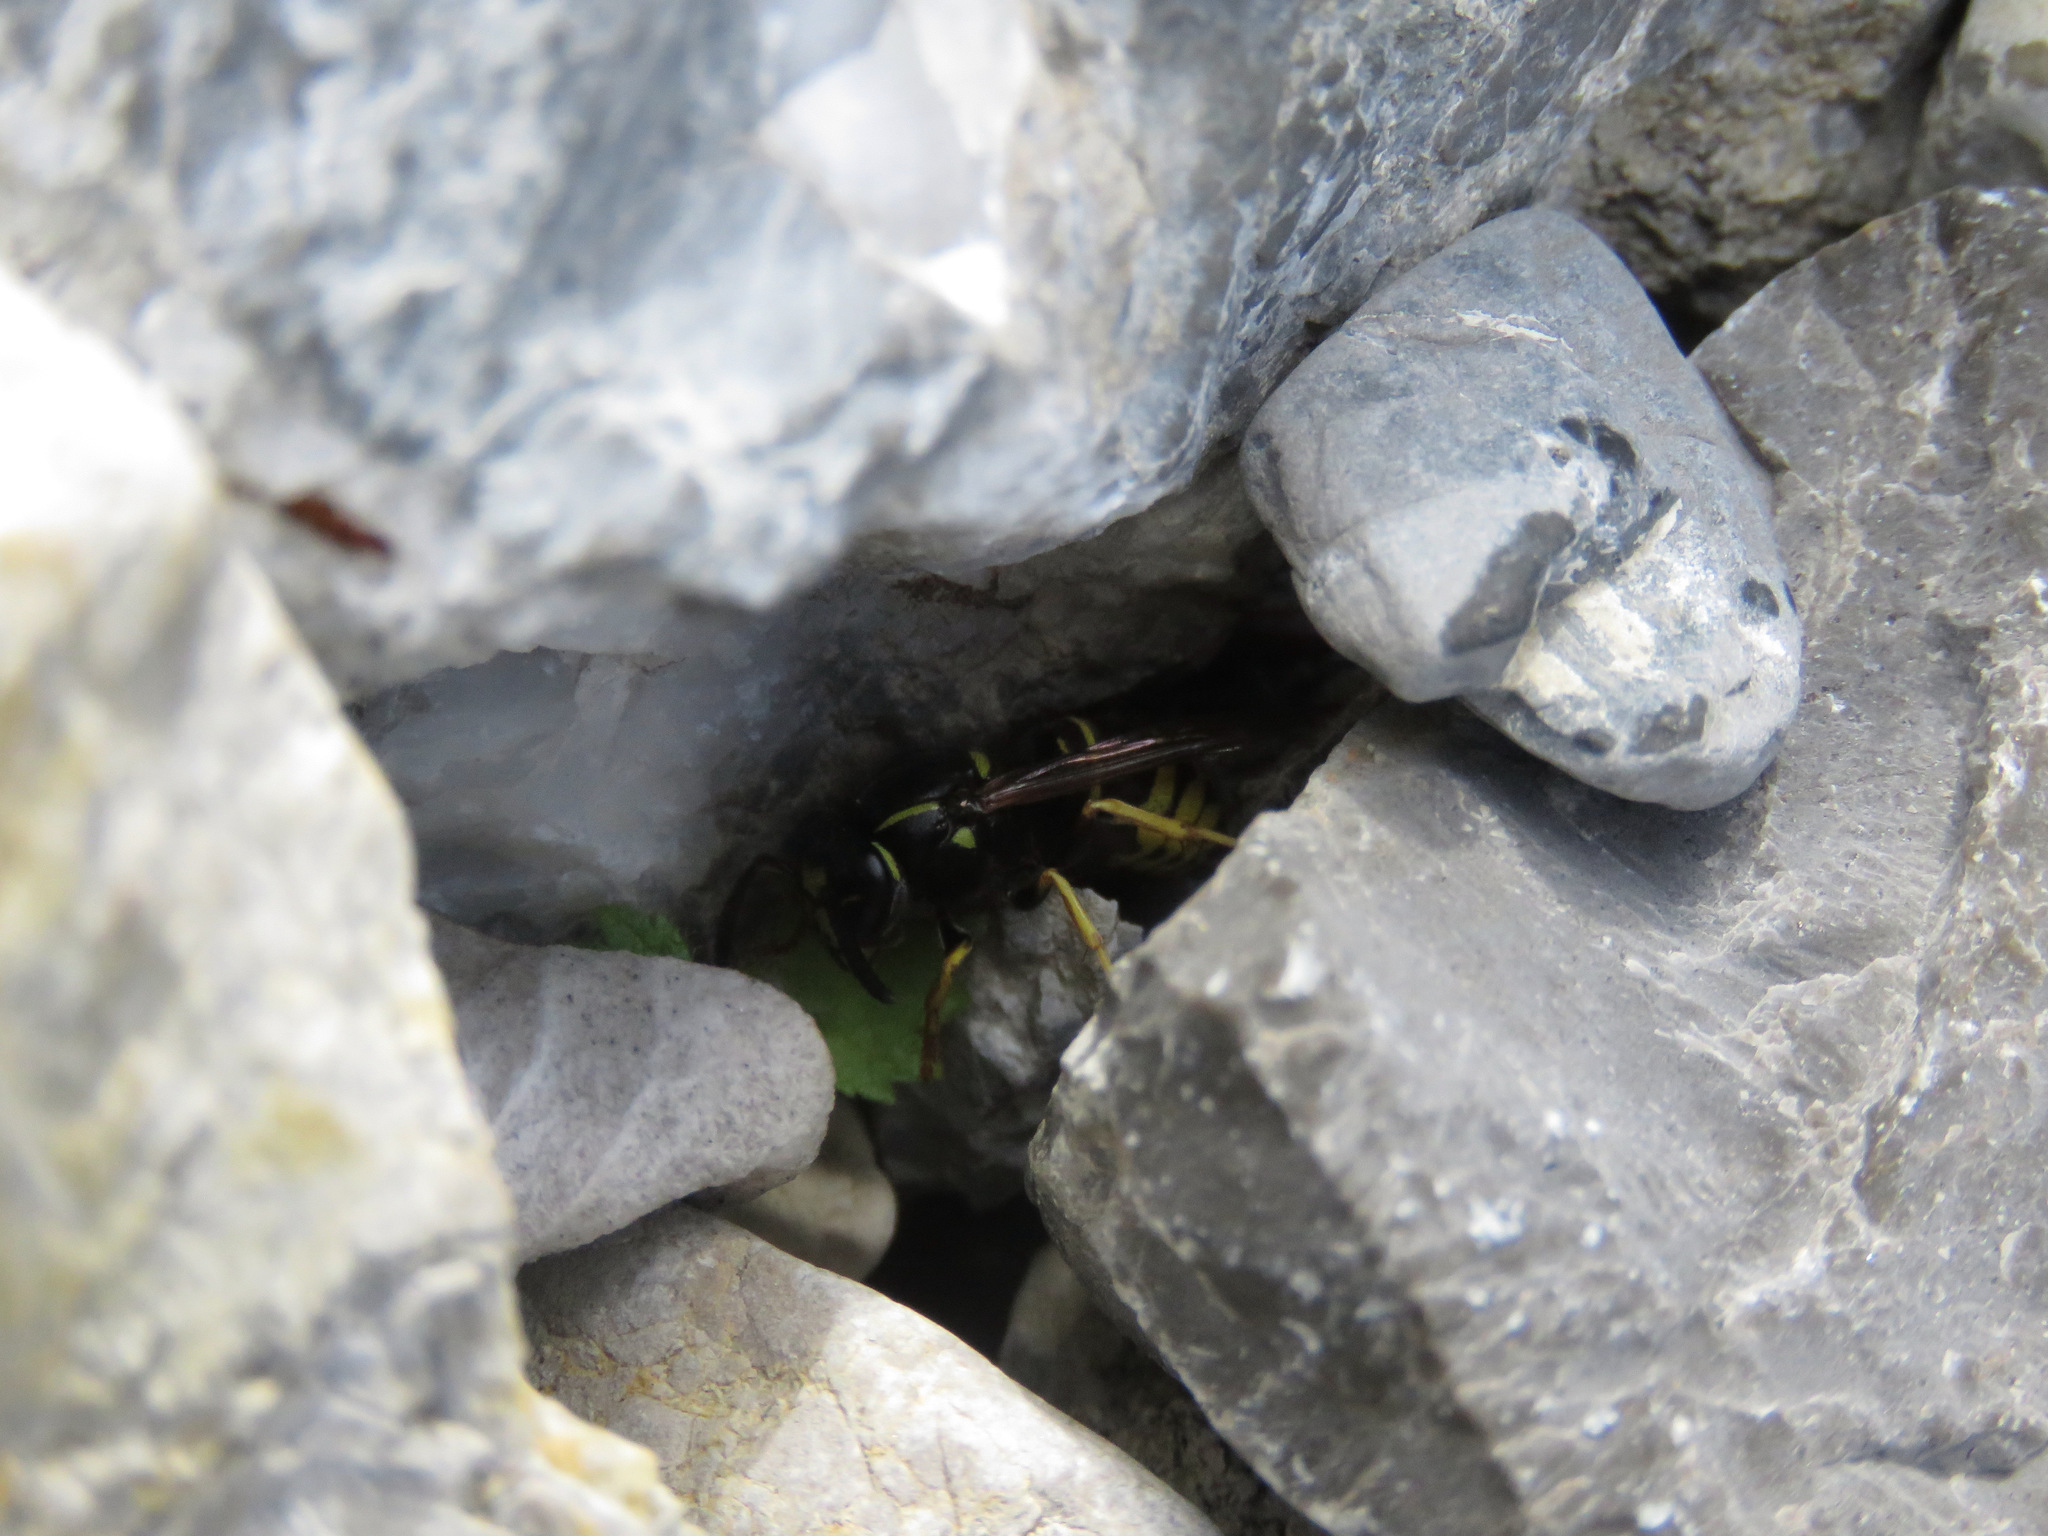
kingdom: Animalia
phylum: Arthropoda
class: Insecta
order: Hymenoptera
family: Vespidae
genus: Vespula
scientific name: Vespula acadica
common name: Forest yellowjacket
